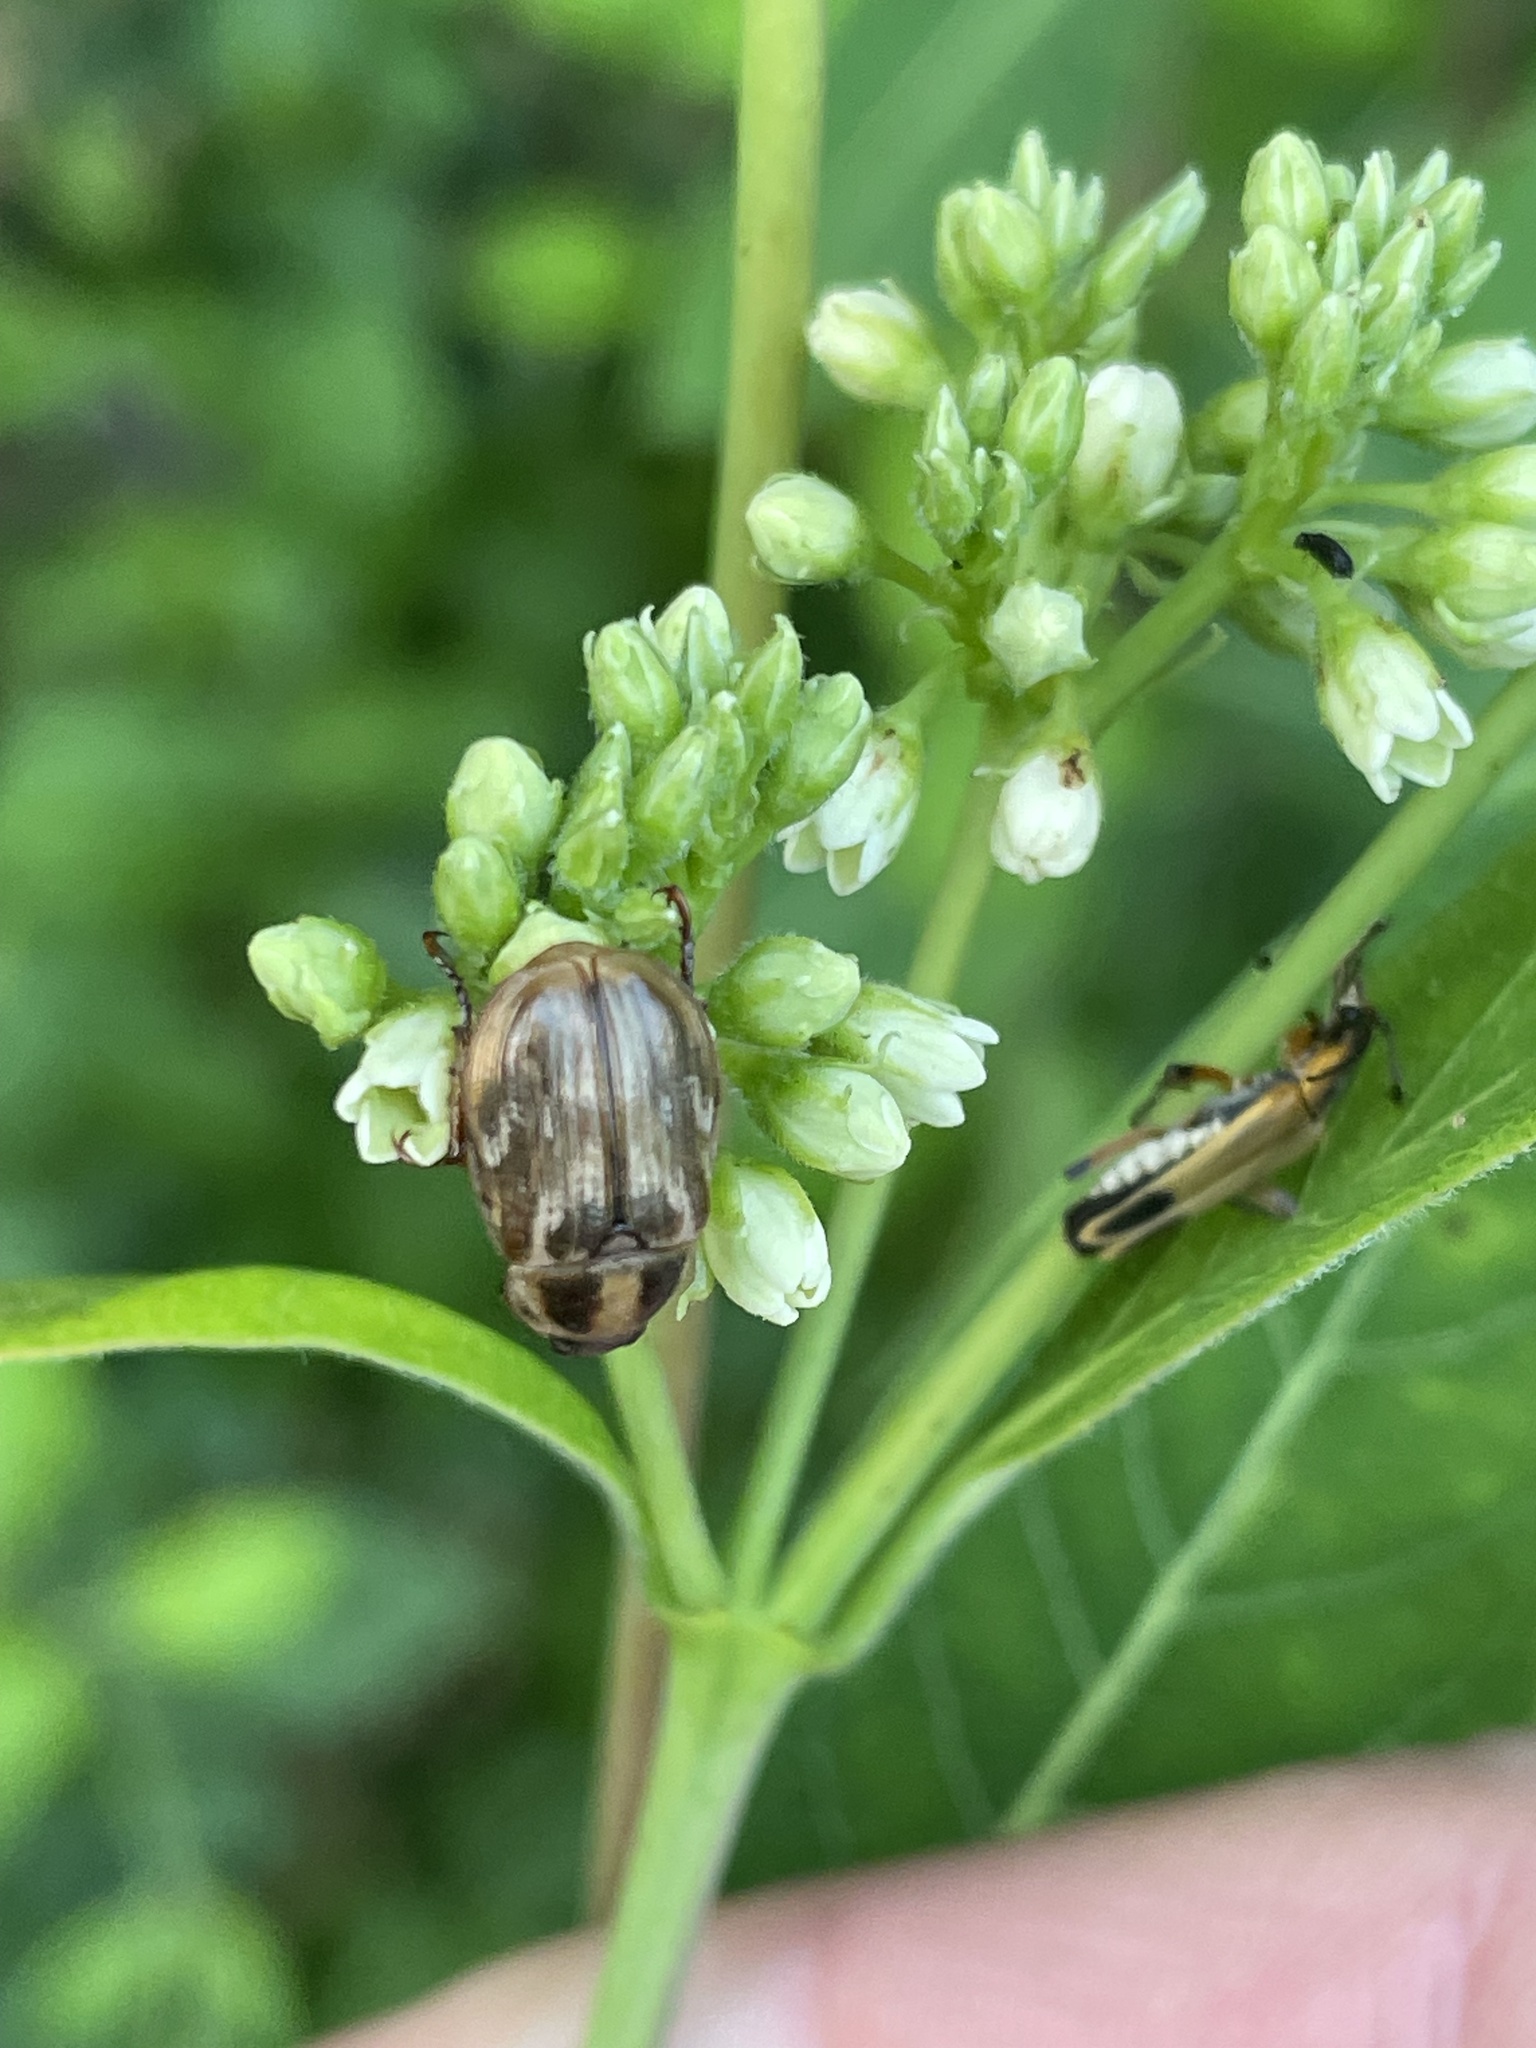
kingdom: Animalia
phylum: Arthropoda
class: Insecta
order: Coleoptera
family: Cantharidae
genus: Chauliognathus
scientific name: Chauliognathus marginatus
